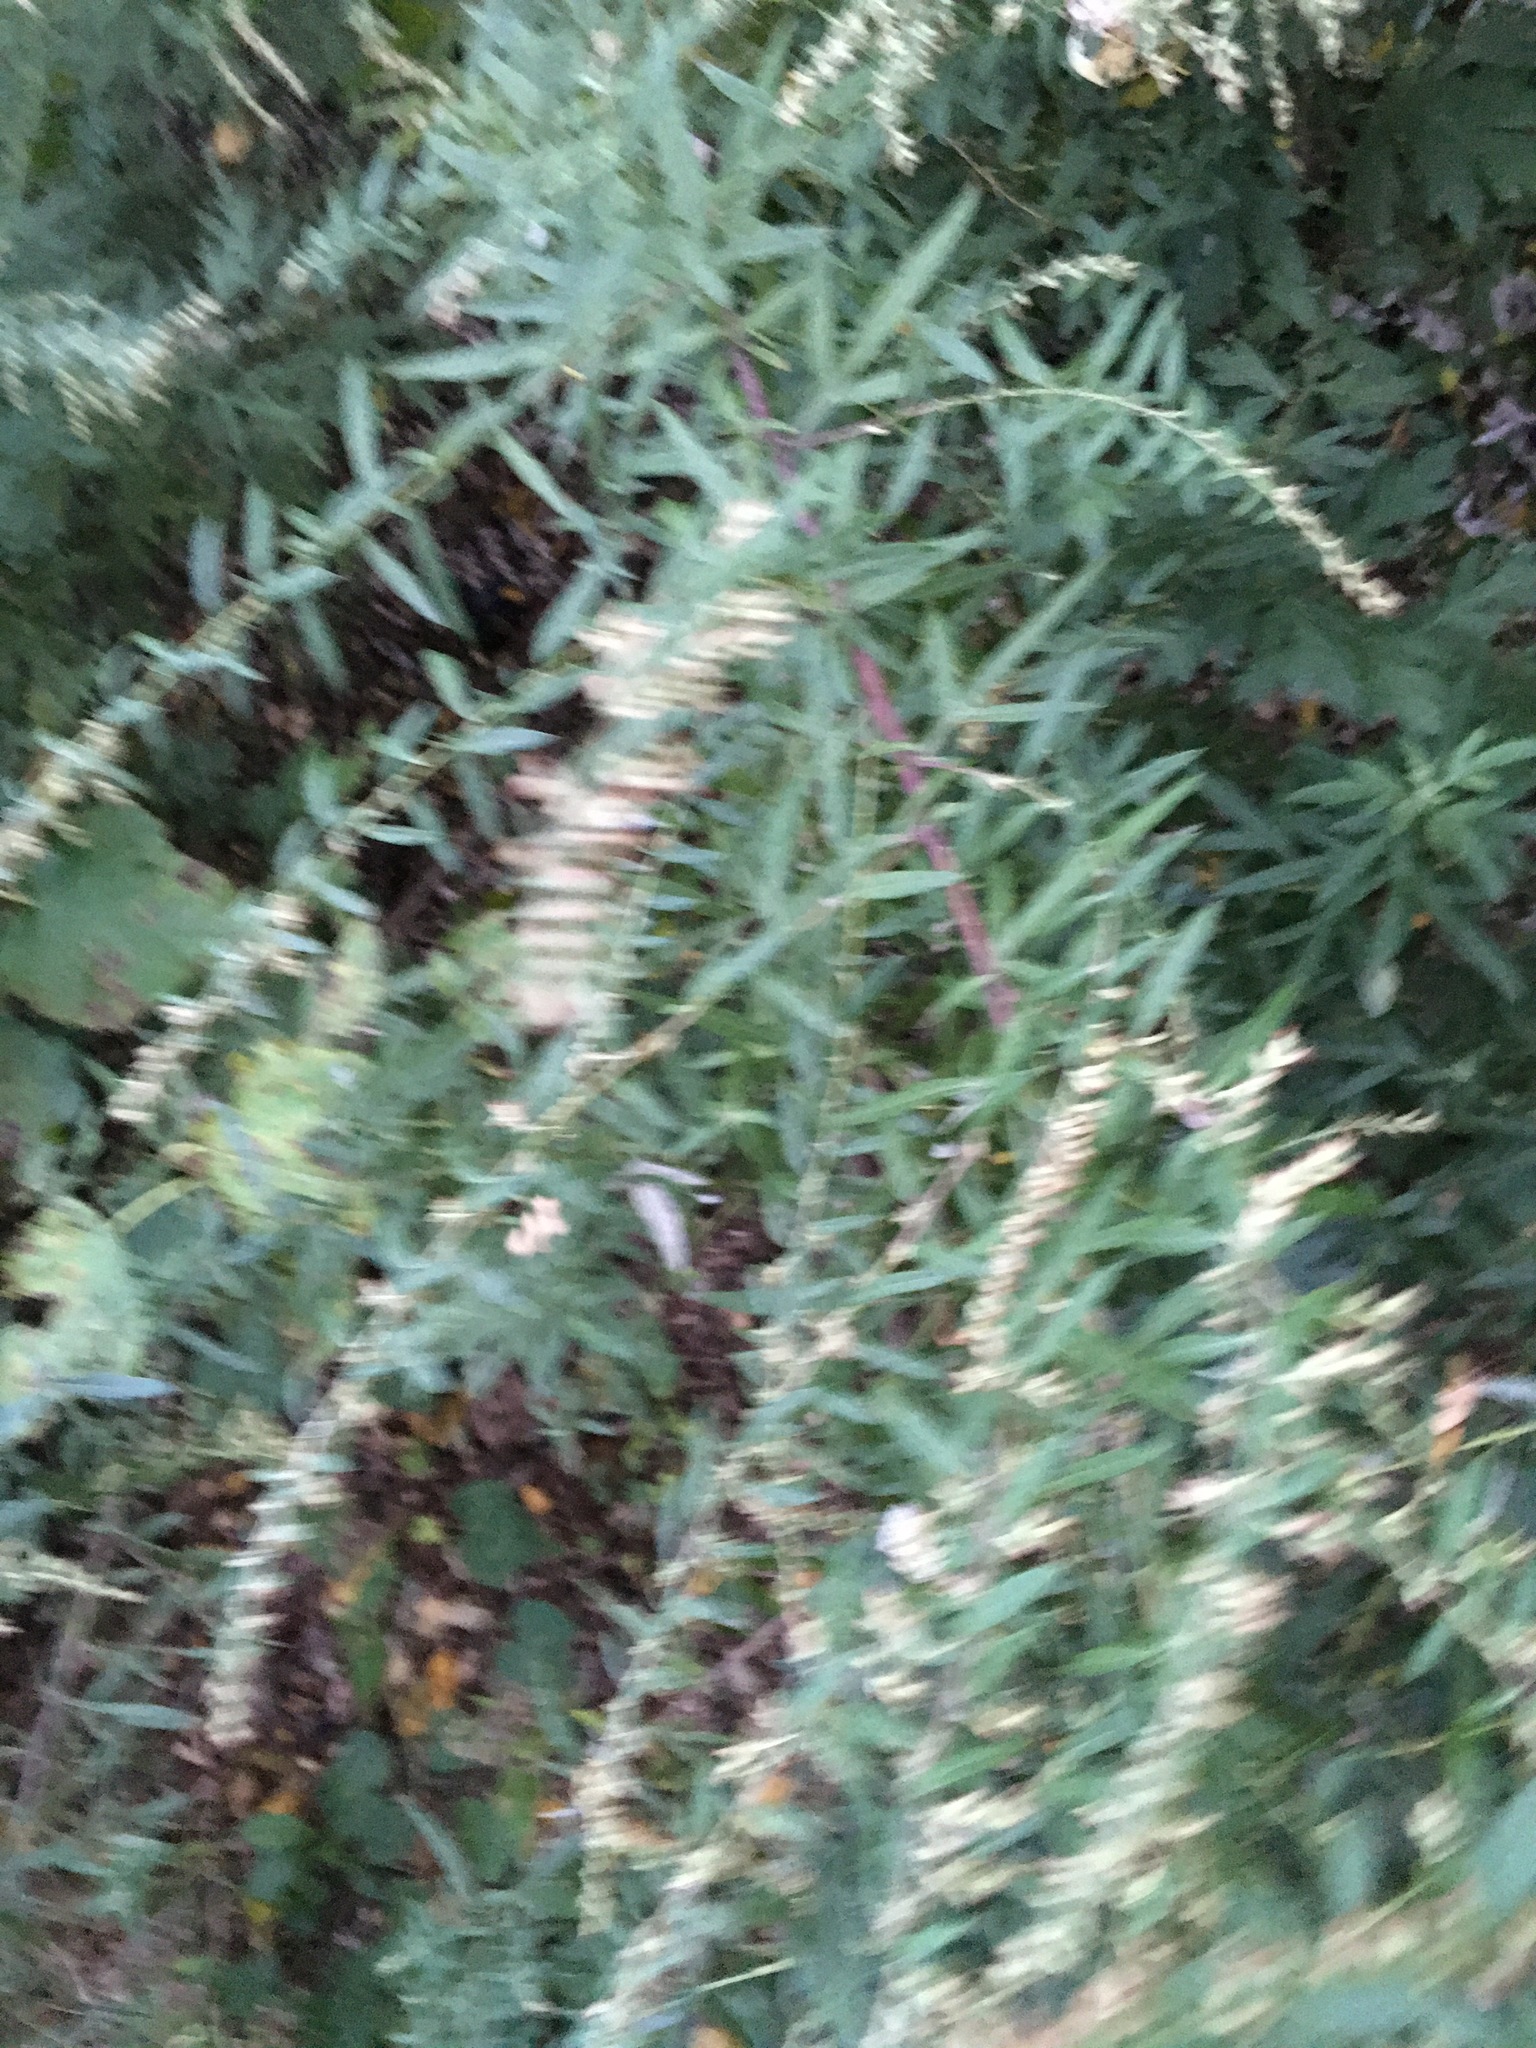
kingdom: Plantae
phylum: Tracheophyta
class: Magnoliopsida
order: Asterales
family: Asteraceae
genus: Artemisia
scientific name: Artemisia vulgaris
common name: Mugwort
